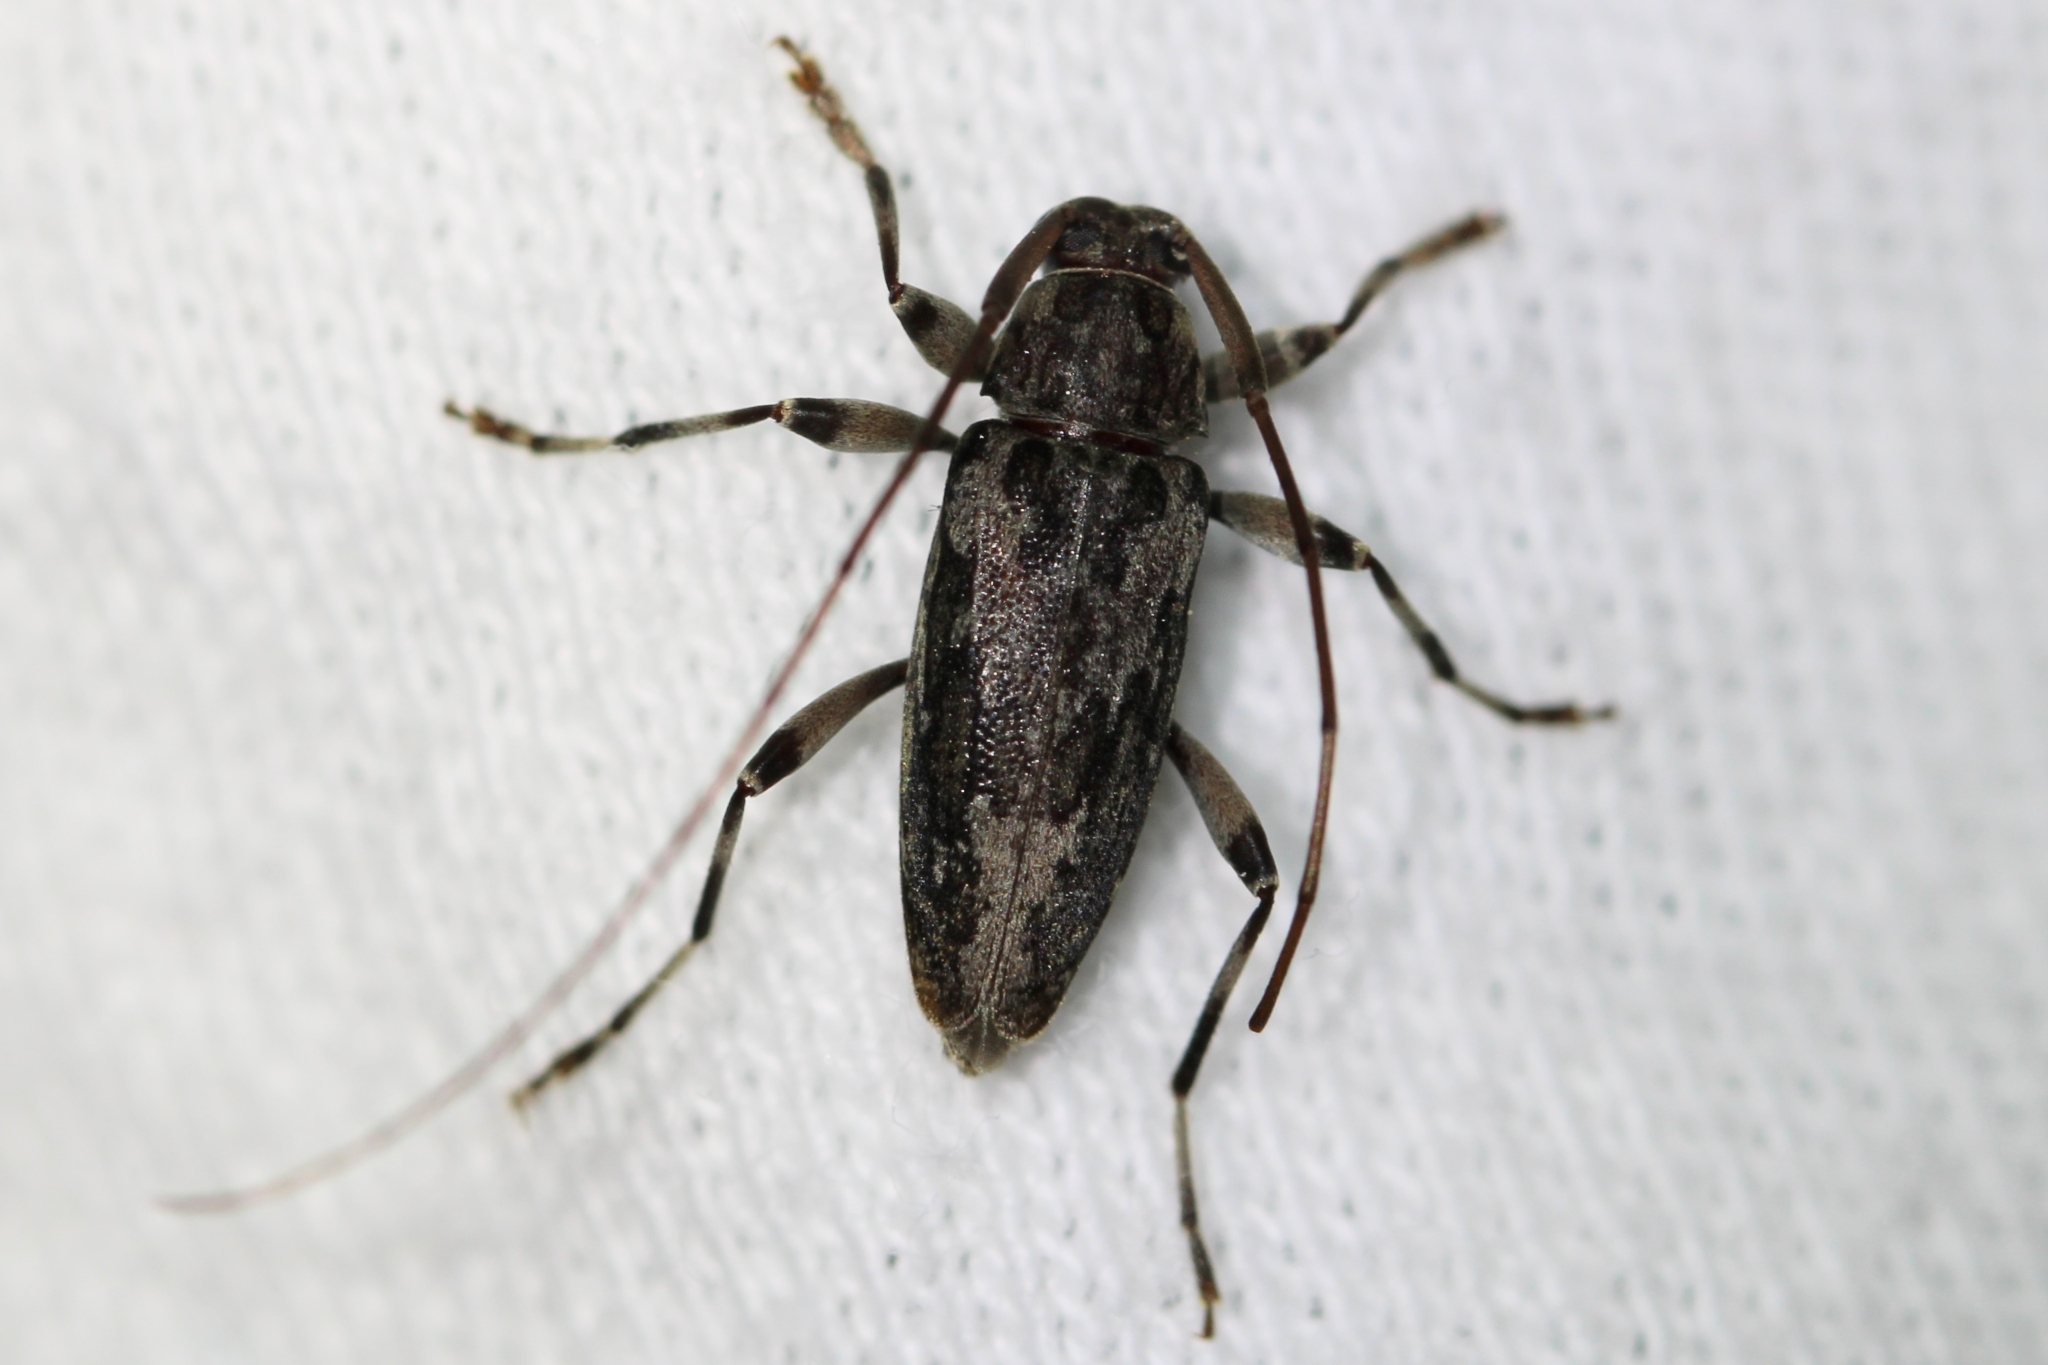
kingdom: Animalia
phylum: Arthropoda
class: Insecta
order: Coleoptera
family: Cerambycidae
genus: Lepturges
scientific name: Lepturges confluens
